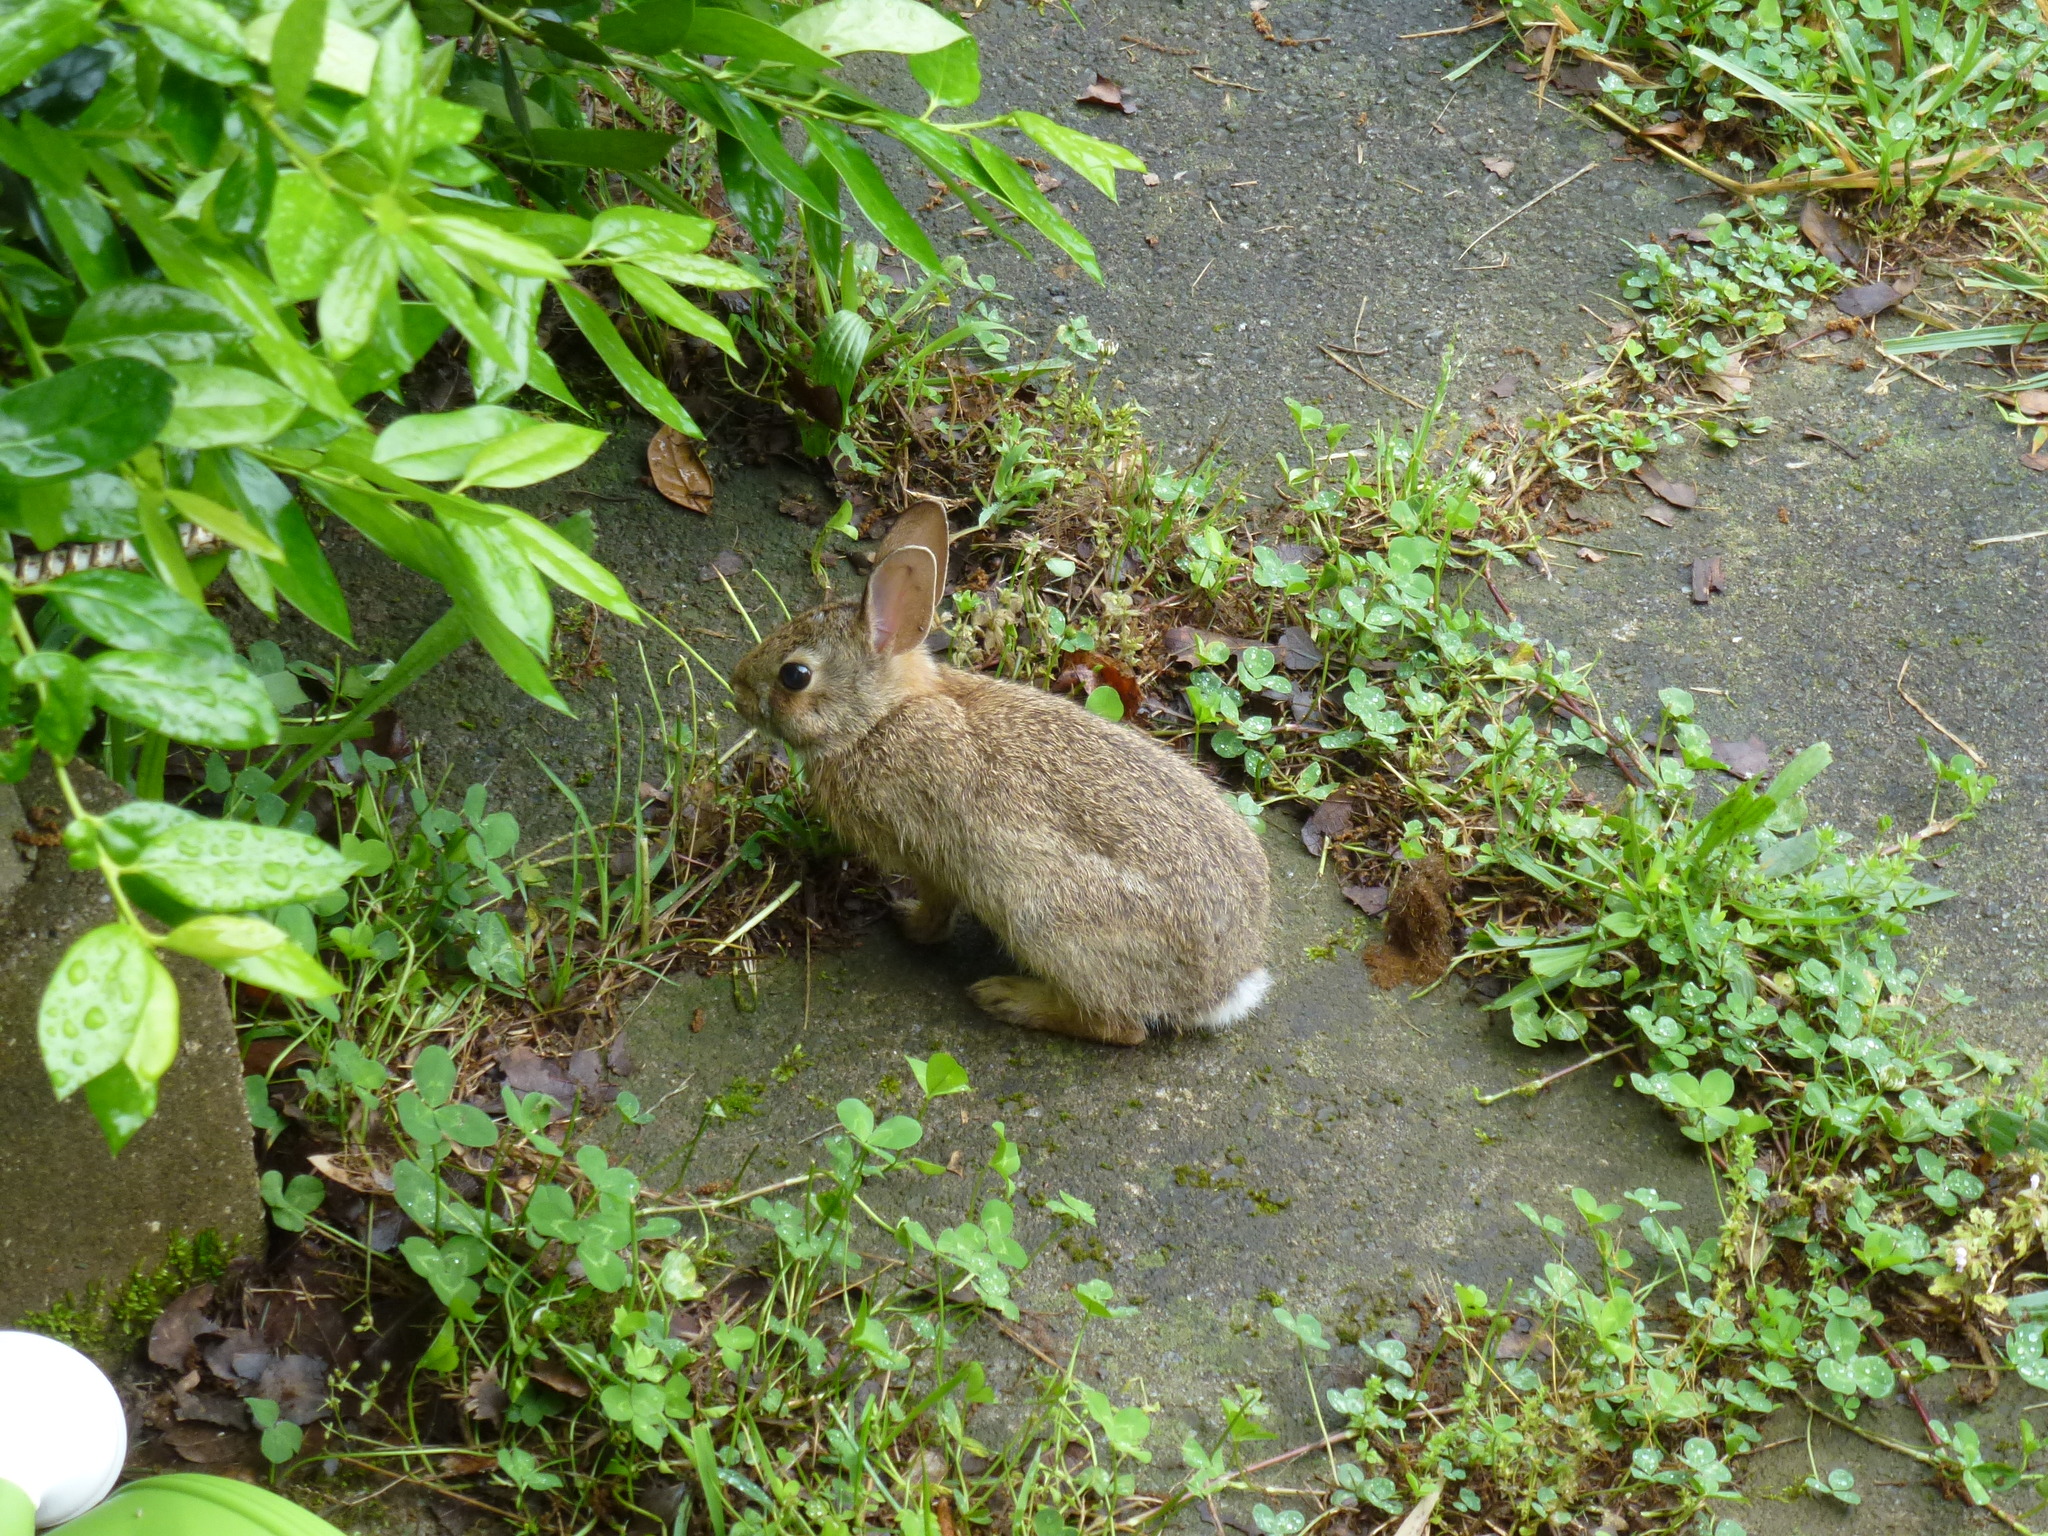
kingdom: Animalia
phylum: Chordata
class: Mammalia
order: Lagomorpha
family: Leporidae
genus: Sylvilagus
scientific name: Sylvilagus floridanus
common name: Eastern cottontail
